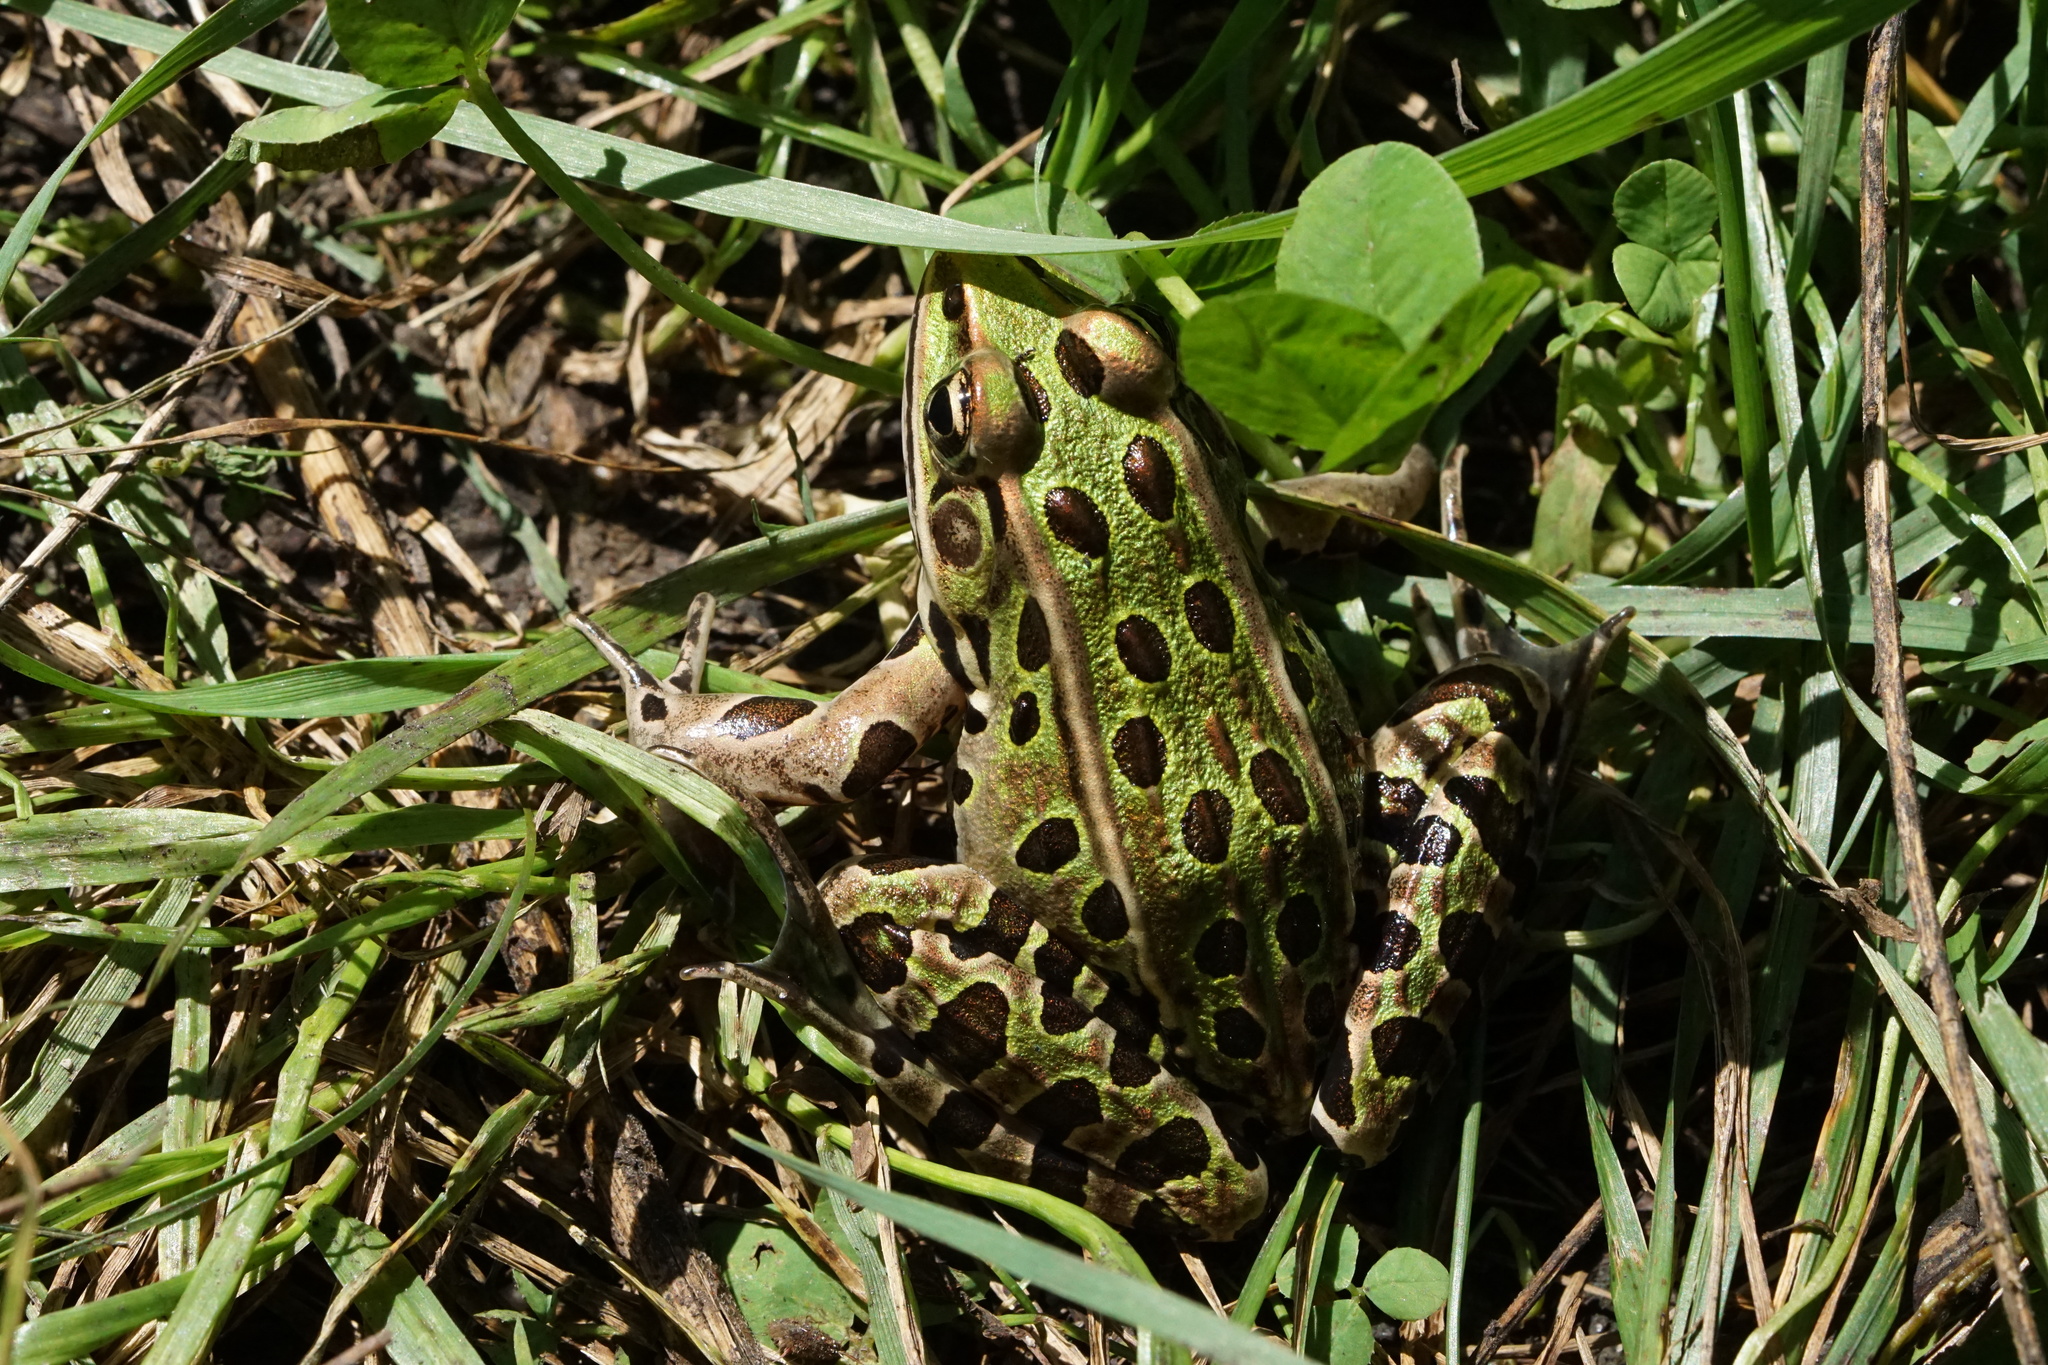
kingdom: Animalia
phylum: Chordata
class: Amphibia
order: Anura
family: Ranidae
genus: Lithobates
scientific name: Lithobates pipiens
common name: Northern leopard frog
